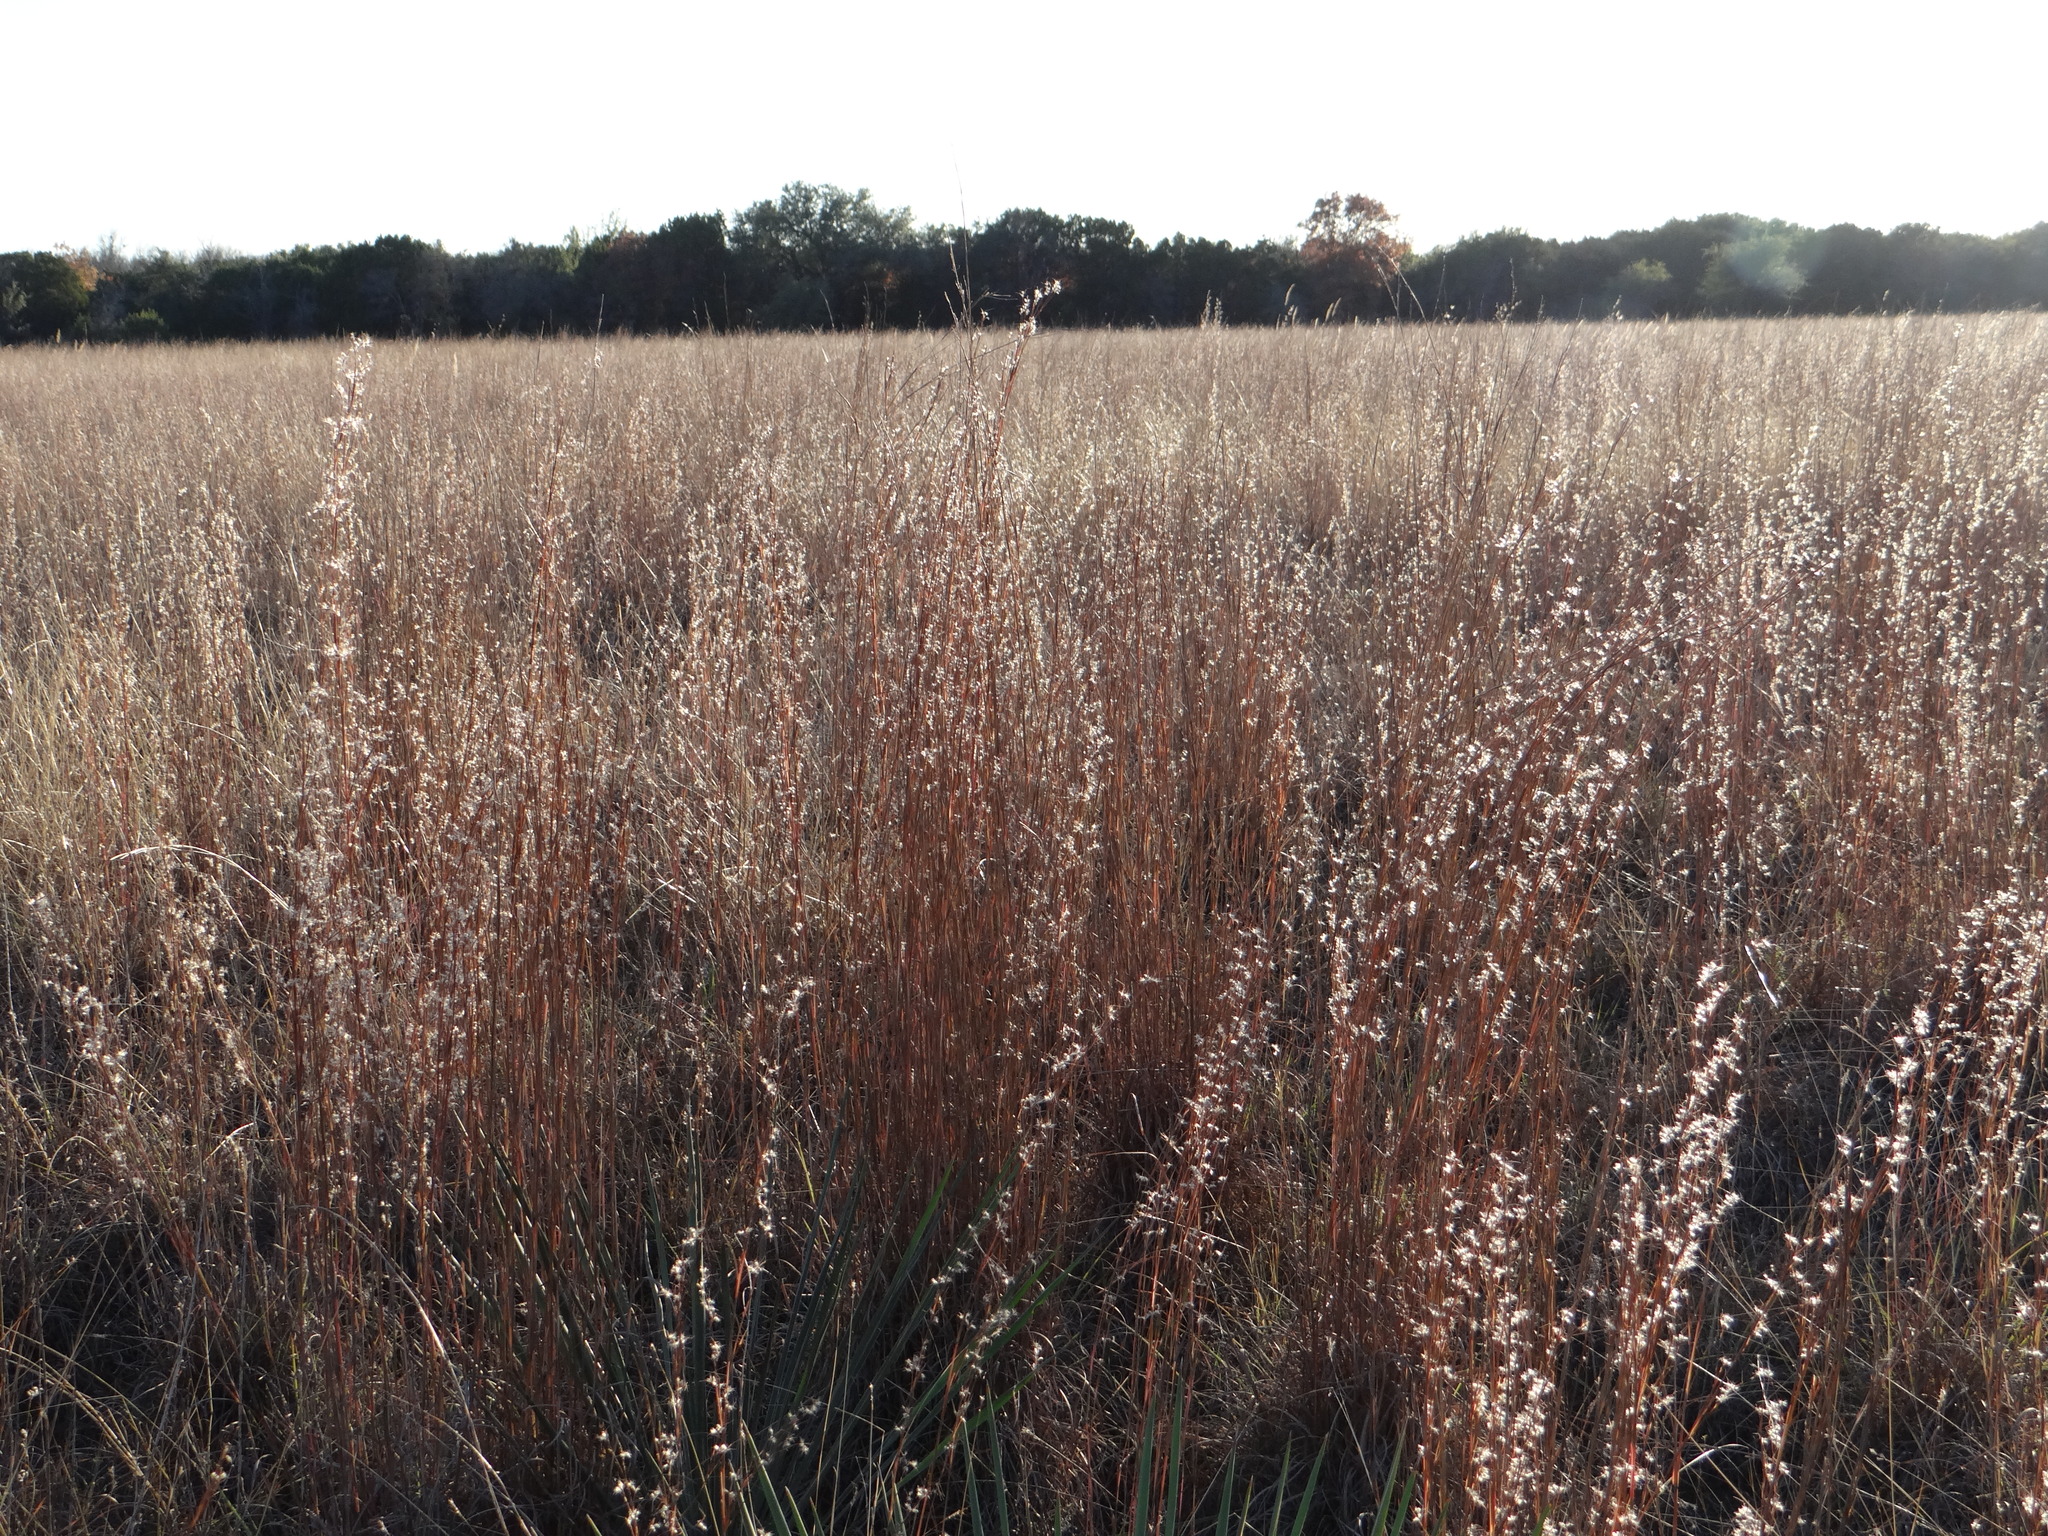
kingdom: Plantae
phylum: Tracheophyta
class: Liliopsida
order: Poales
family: Poaceae
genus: Schizachyrium
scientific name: Schizachyrium scoparium
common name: Little bluestem
